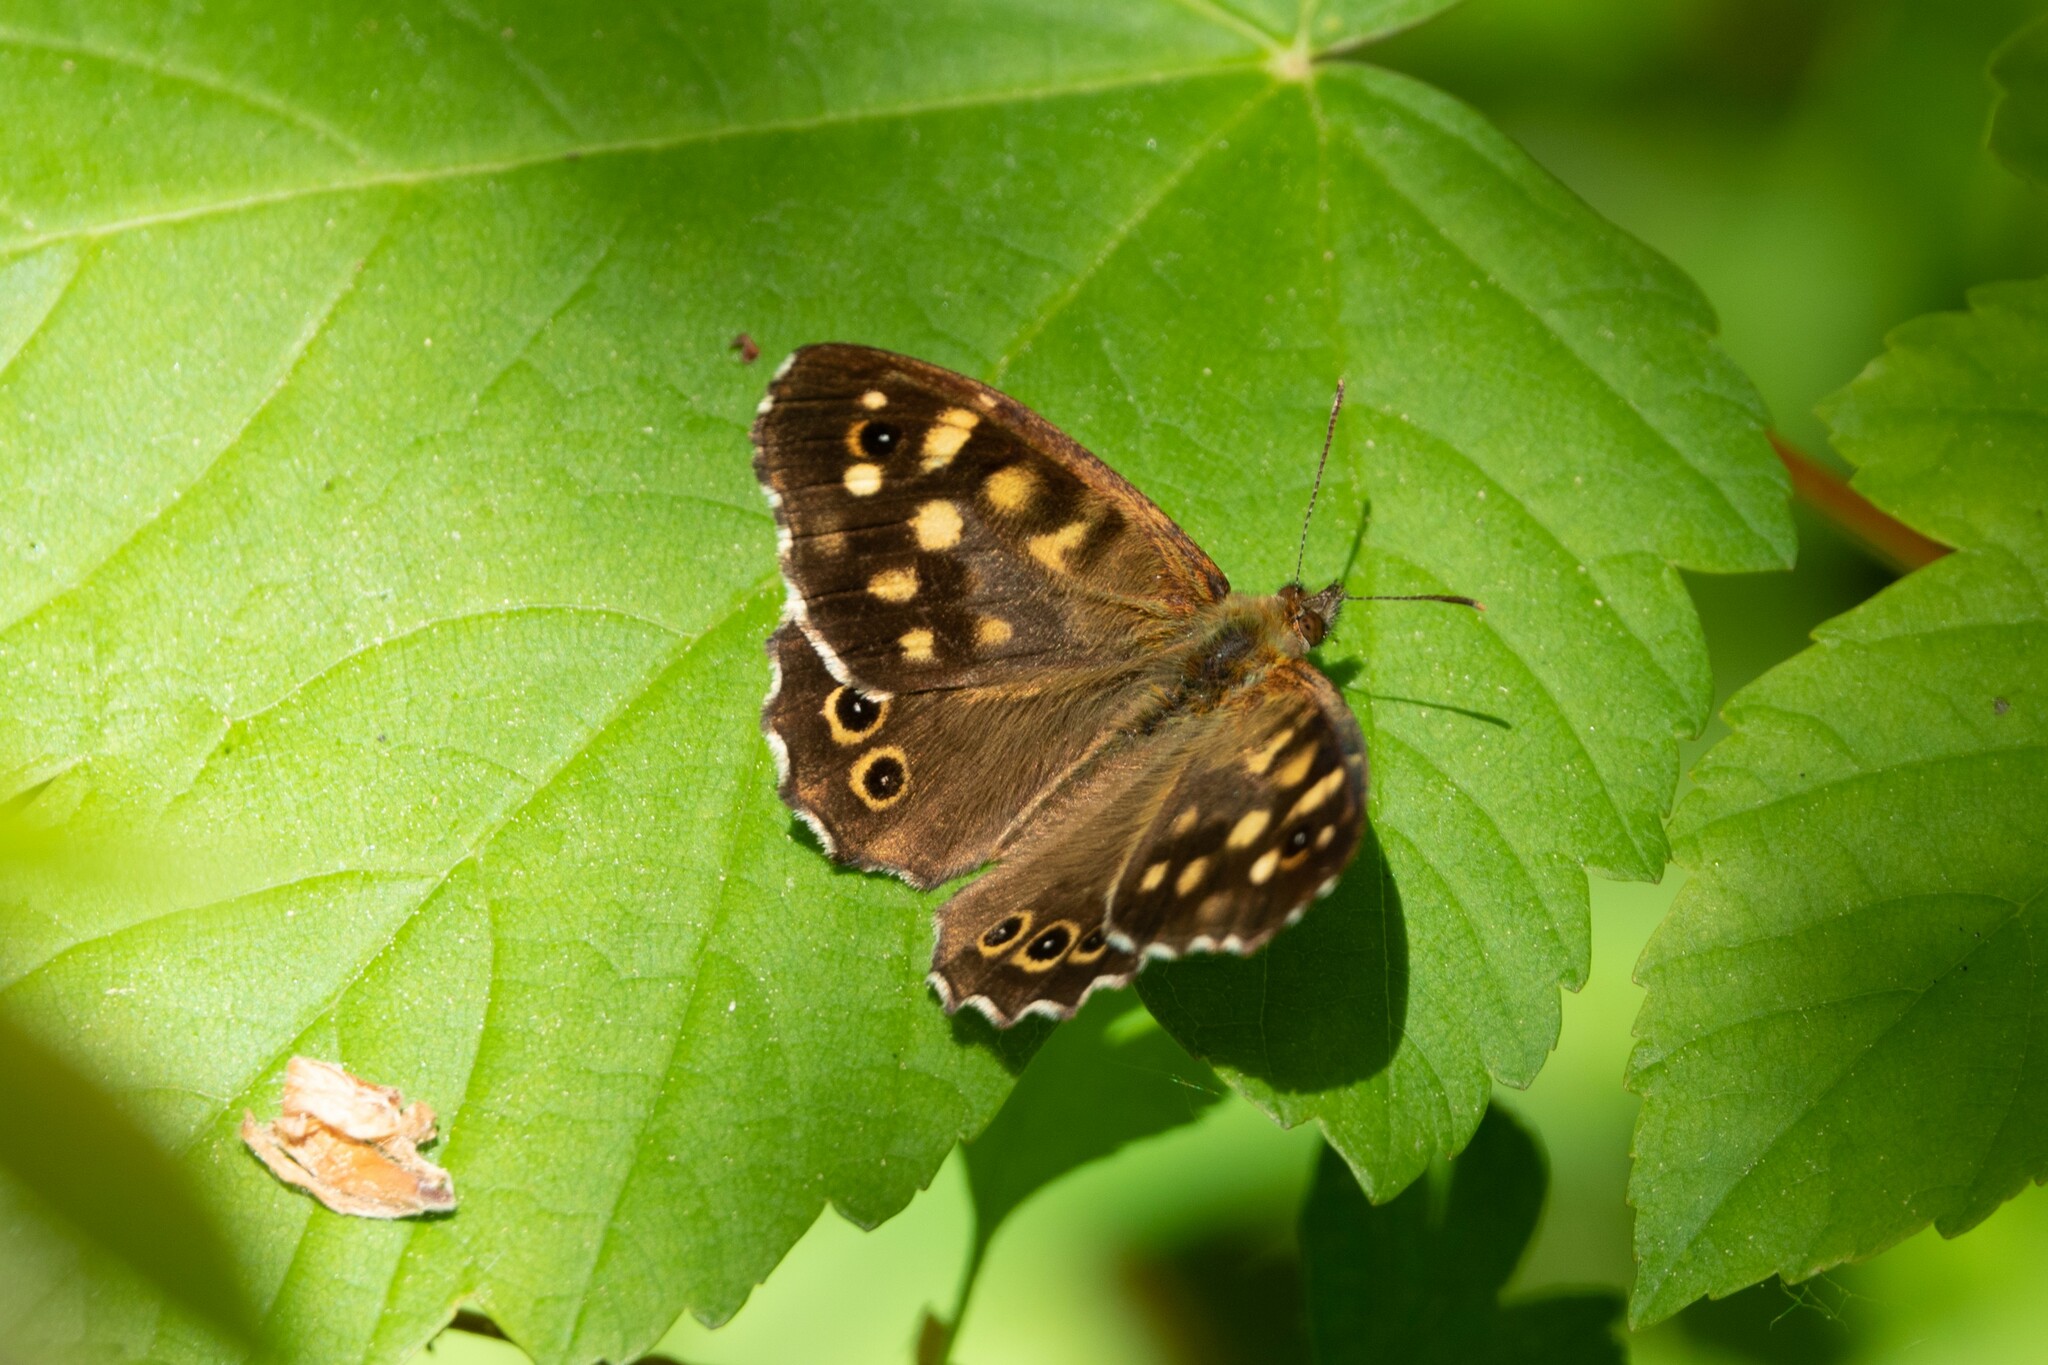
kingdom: Animalia
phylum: Arthropoda
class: Insecta
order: Lepidoptera
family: Nymphalidae
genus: Pararge
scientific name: Pararge aegeria
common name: Speckled wood
